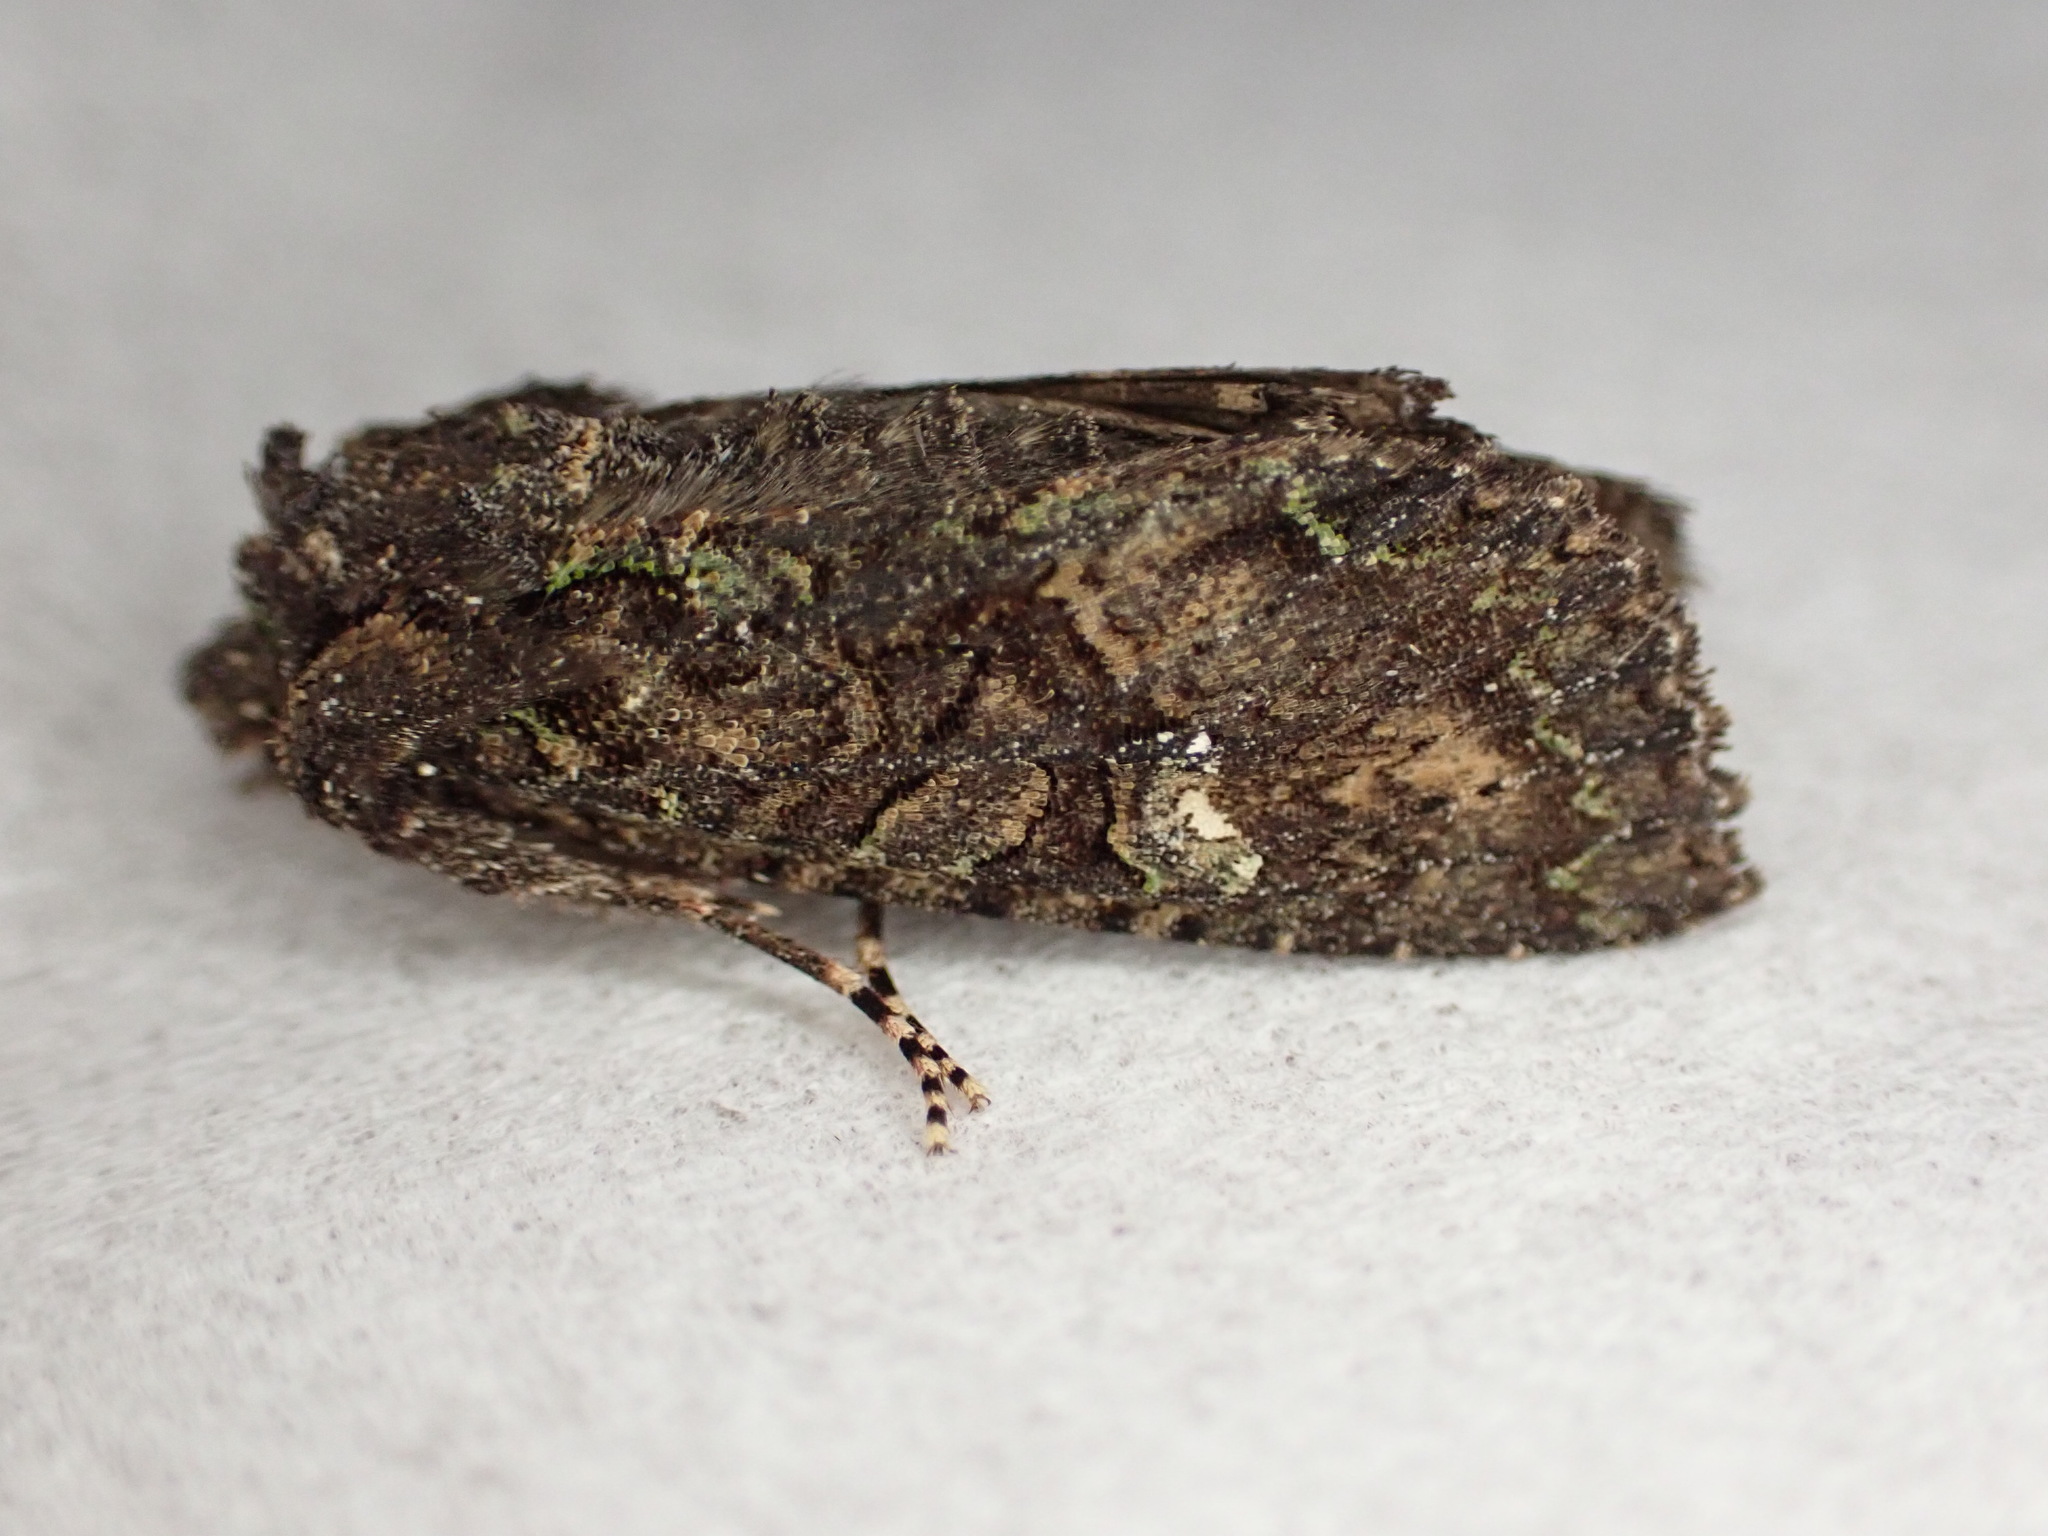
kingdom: Animalia
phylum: Arthropoda
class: Insecta
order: Lepidoptera
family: Noctuidae
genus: Meterana
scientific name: Meterana ochthistis
